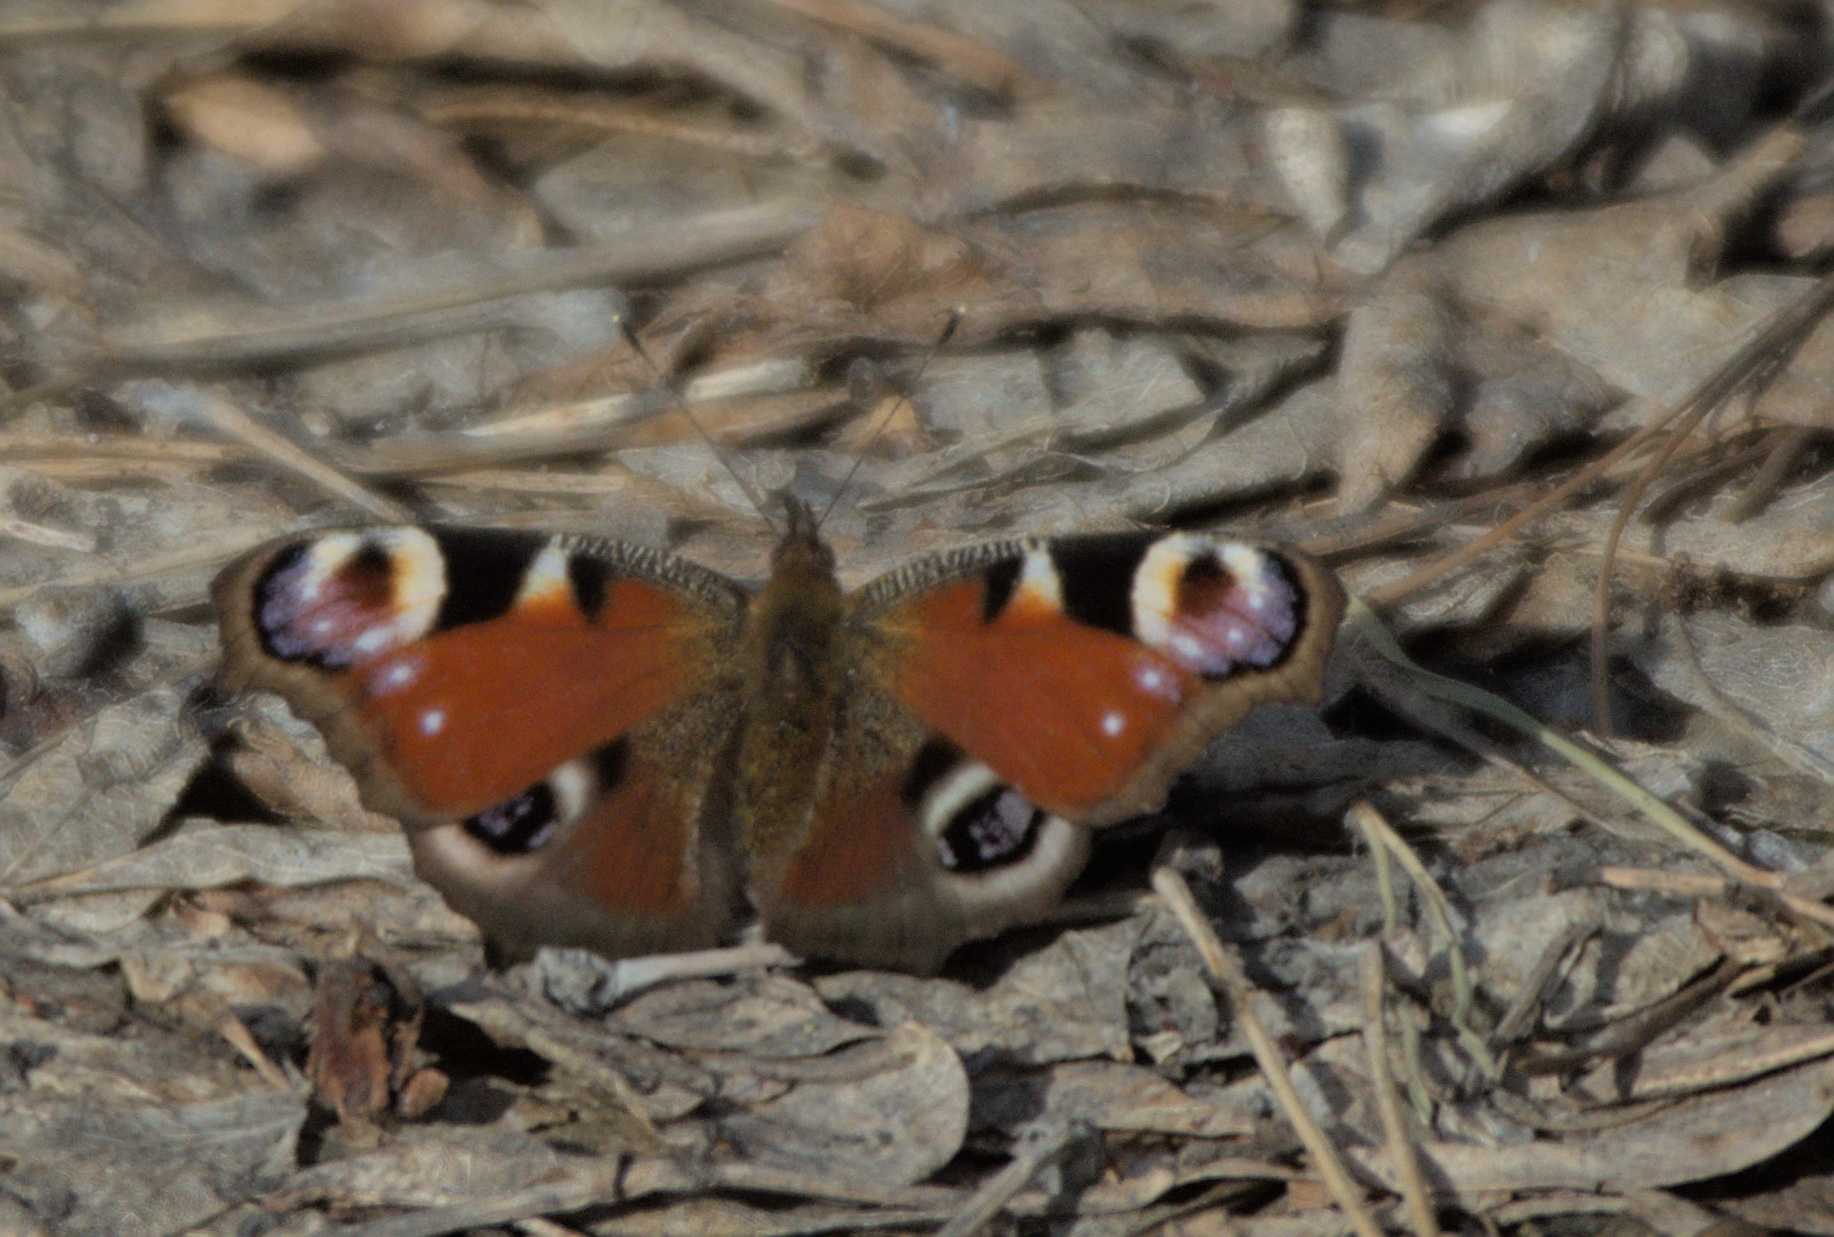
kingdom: Animalia
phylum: Arthropoda
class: Insecta
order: Lepidoptera
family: Nymphalidae
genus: Aglais
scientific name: Aglais io
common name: Peacock
